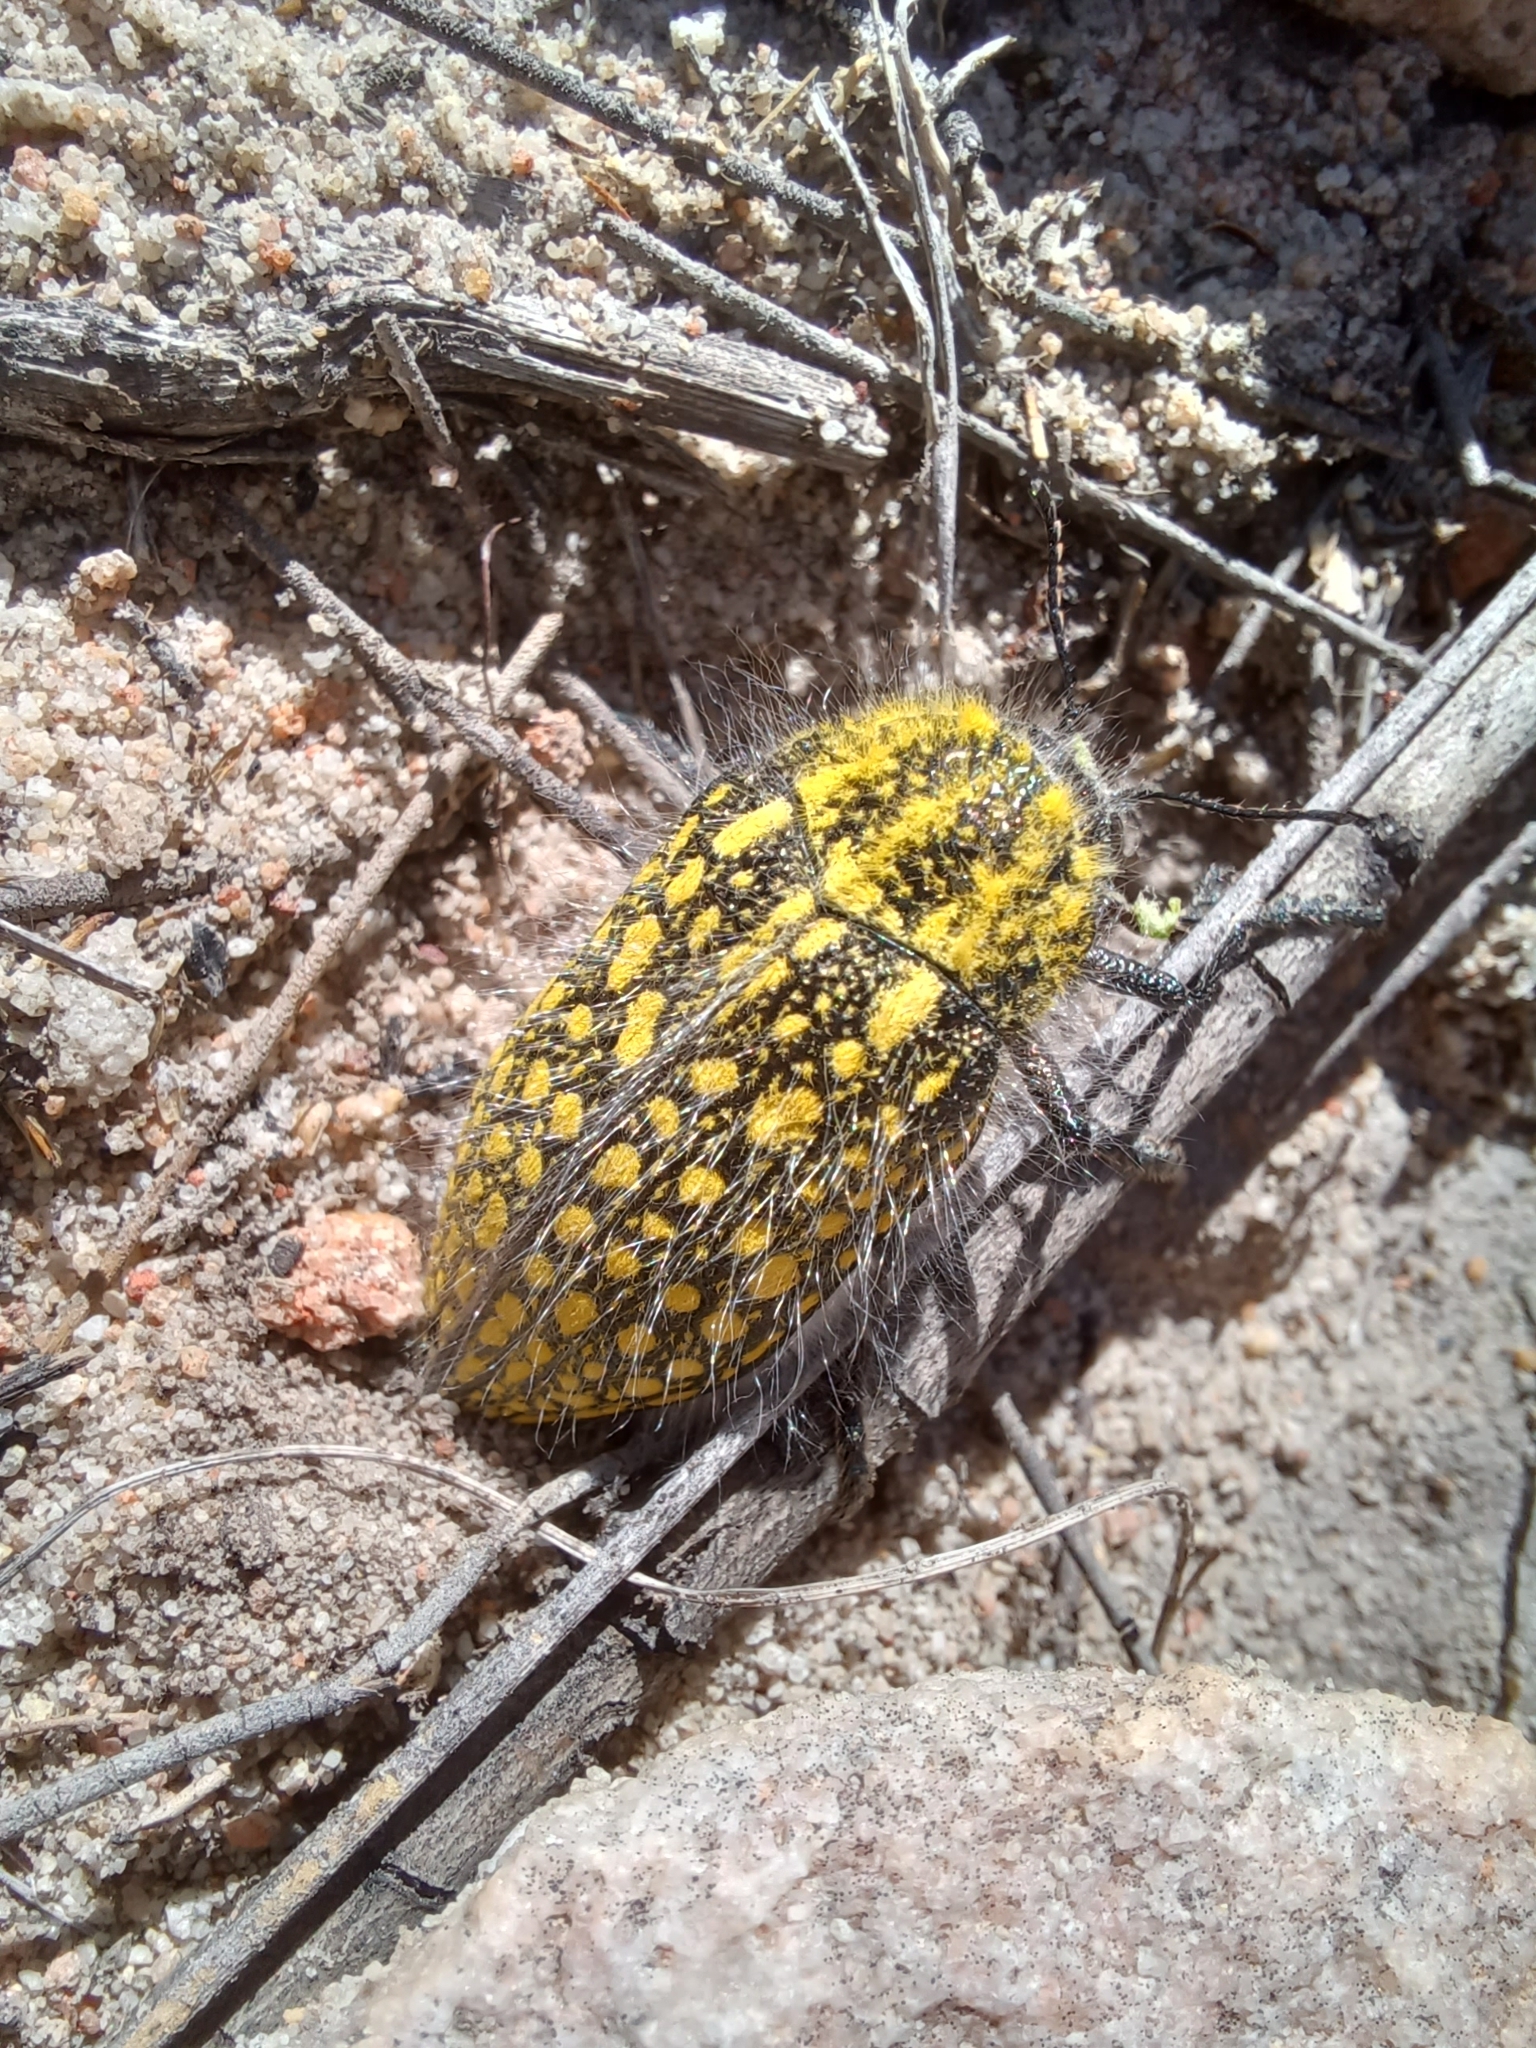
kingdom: Animalia
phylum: Arthropoda
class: Insecta
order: Coleoptera
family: Buprestidae
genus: Julodis
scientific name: Julodis fascicularis
